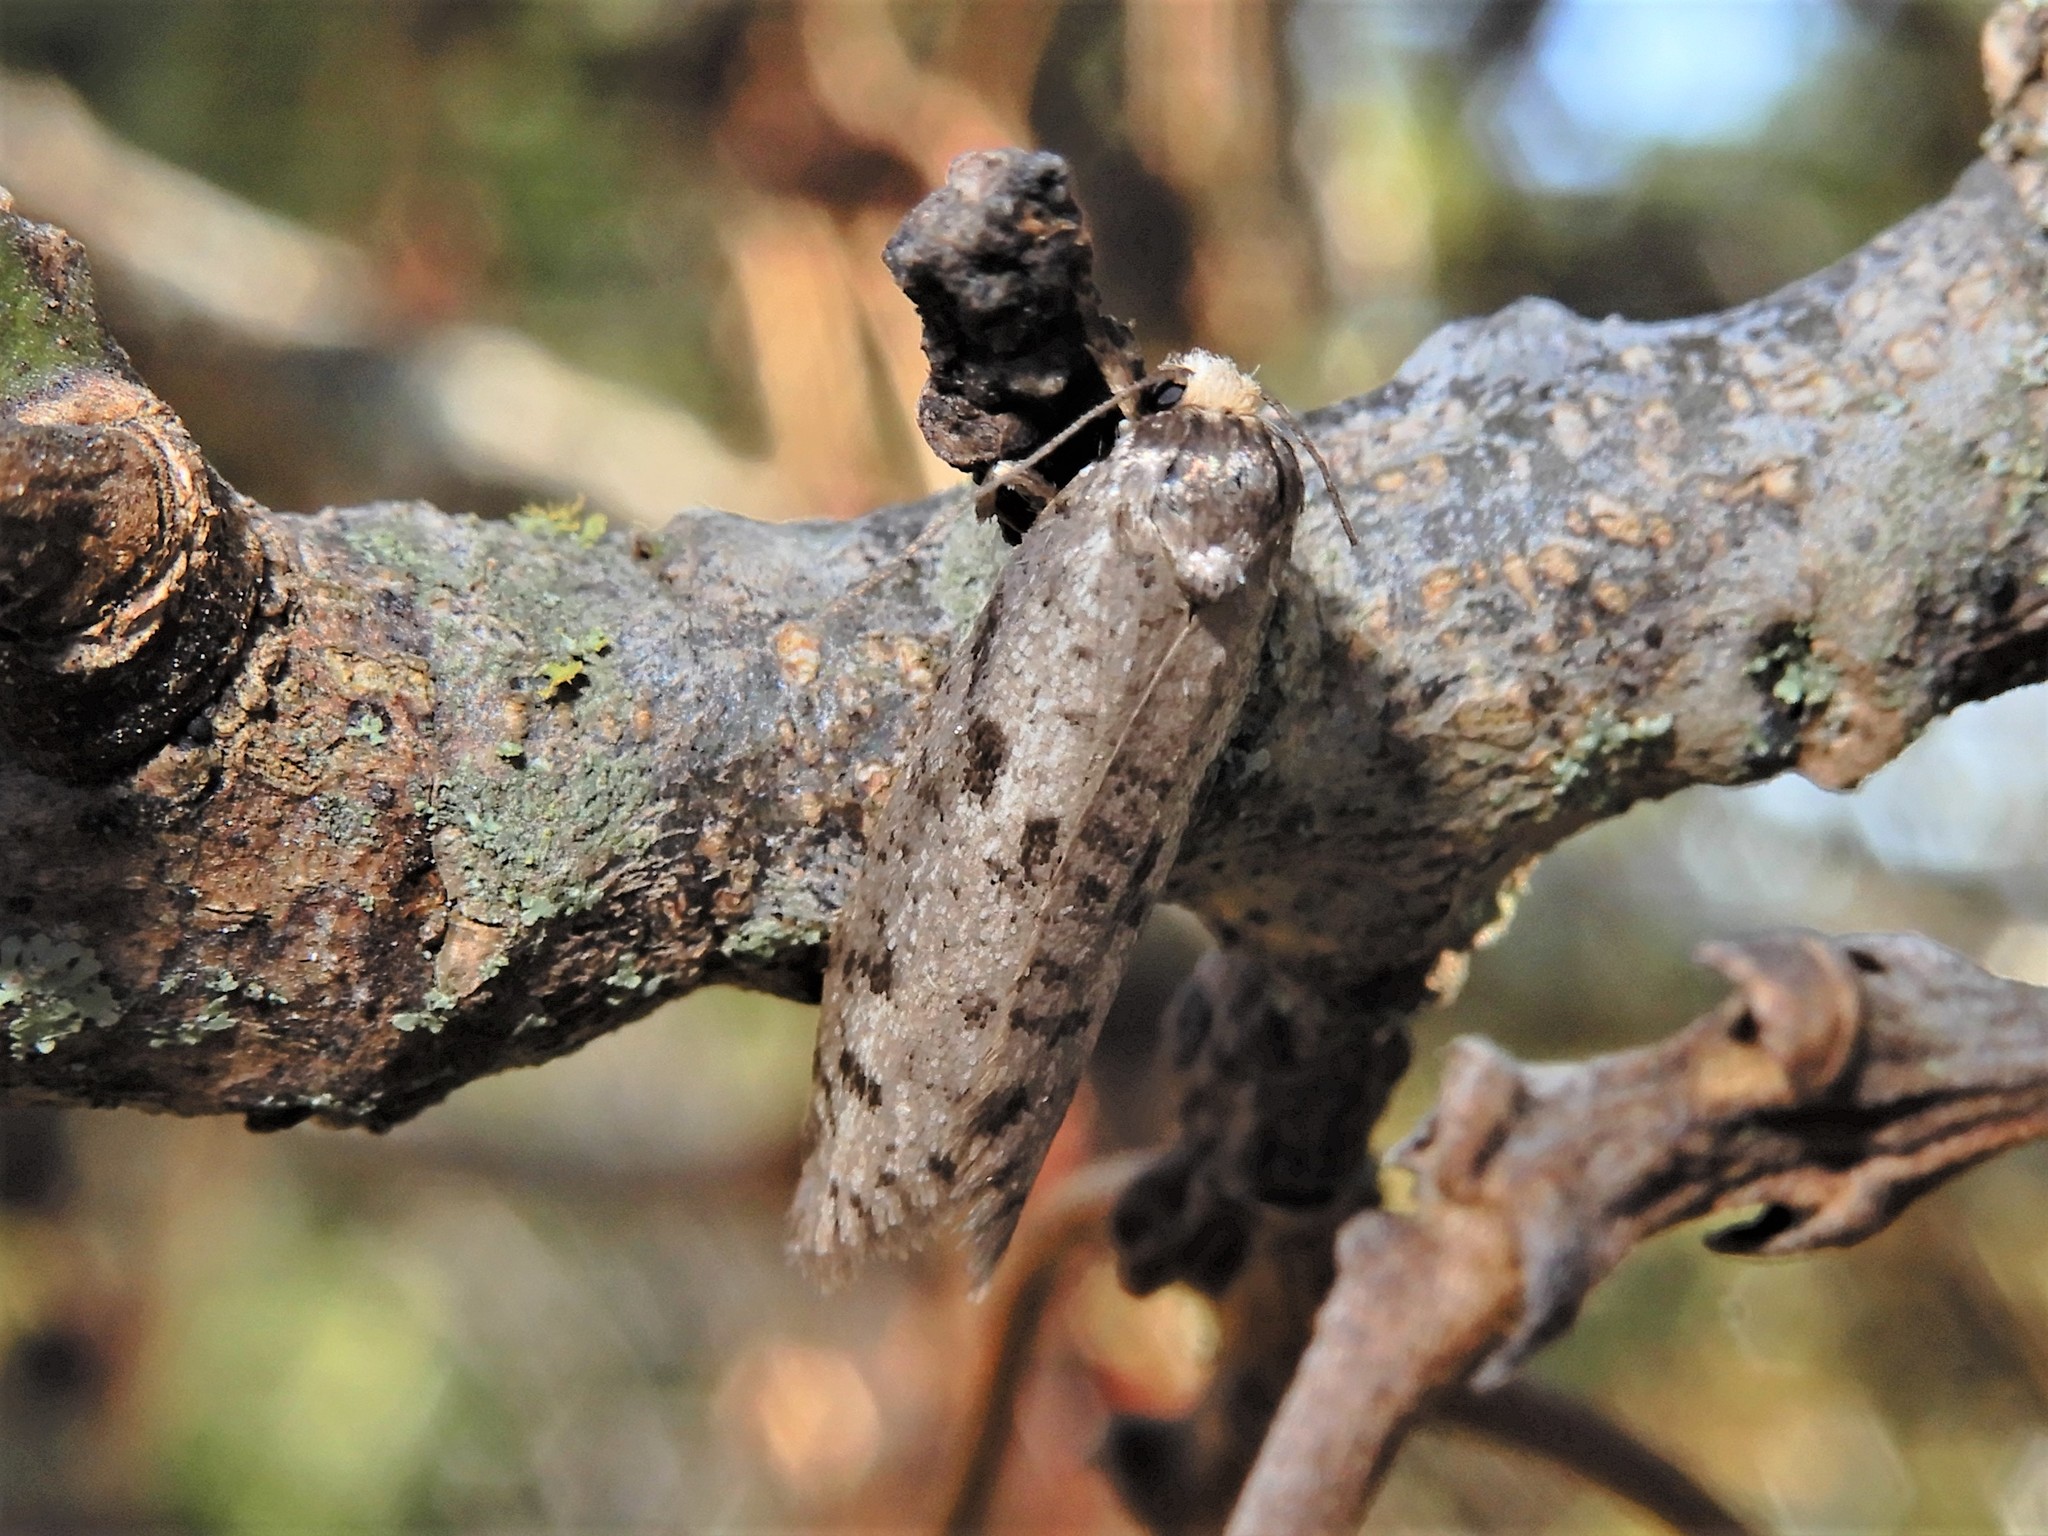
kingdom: Animalia
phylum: Arthropoda
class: Insecta
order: Lepidoptera
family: Psychidae
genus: Lepidoscia
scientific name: Lepidoscia protorna
